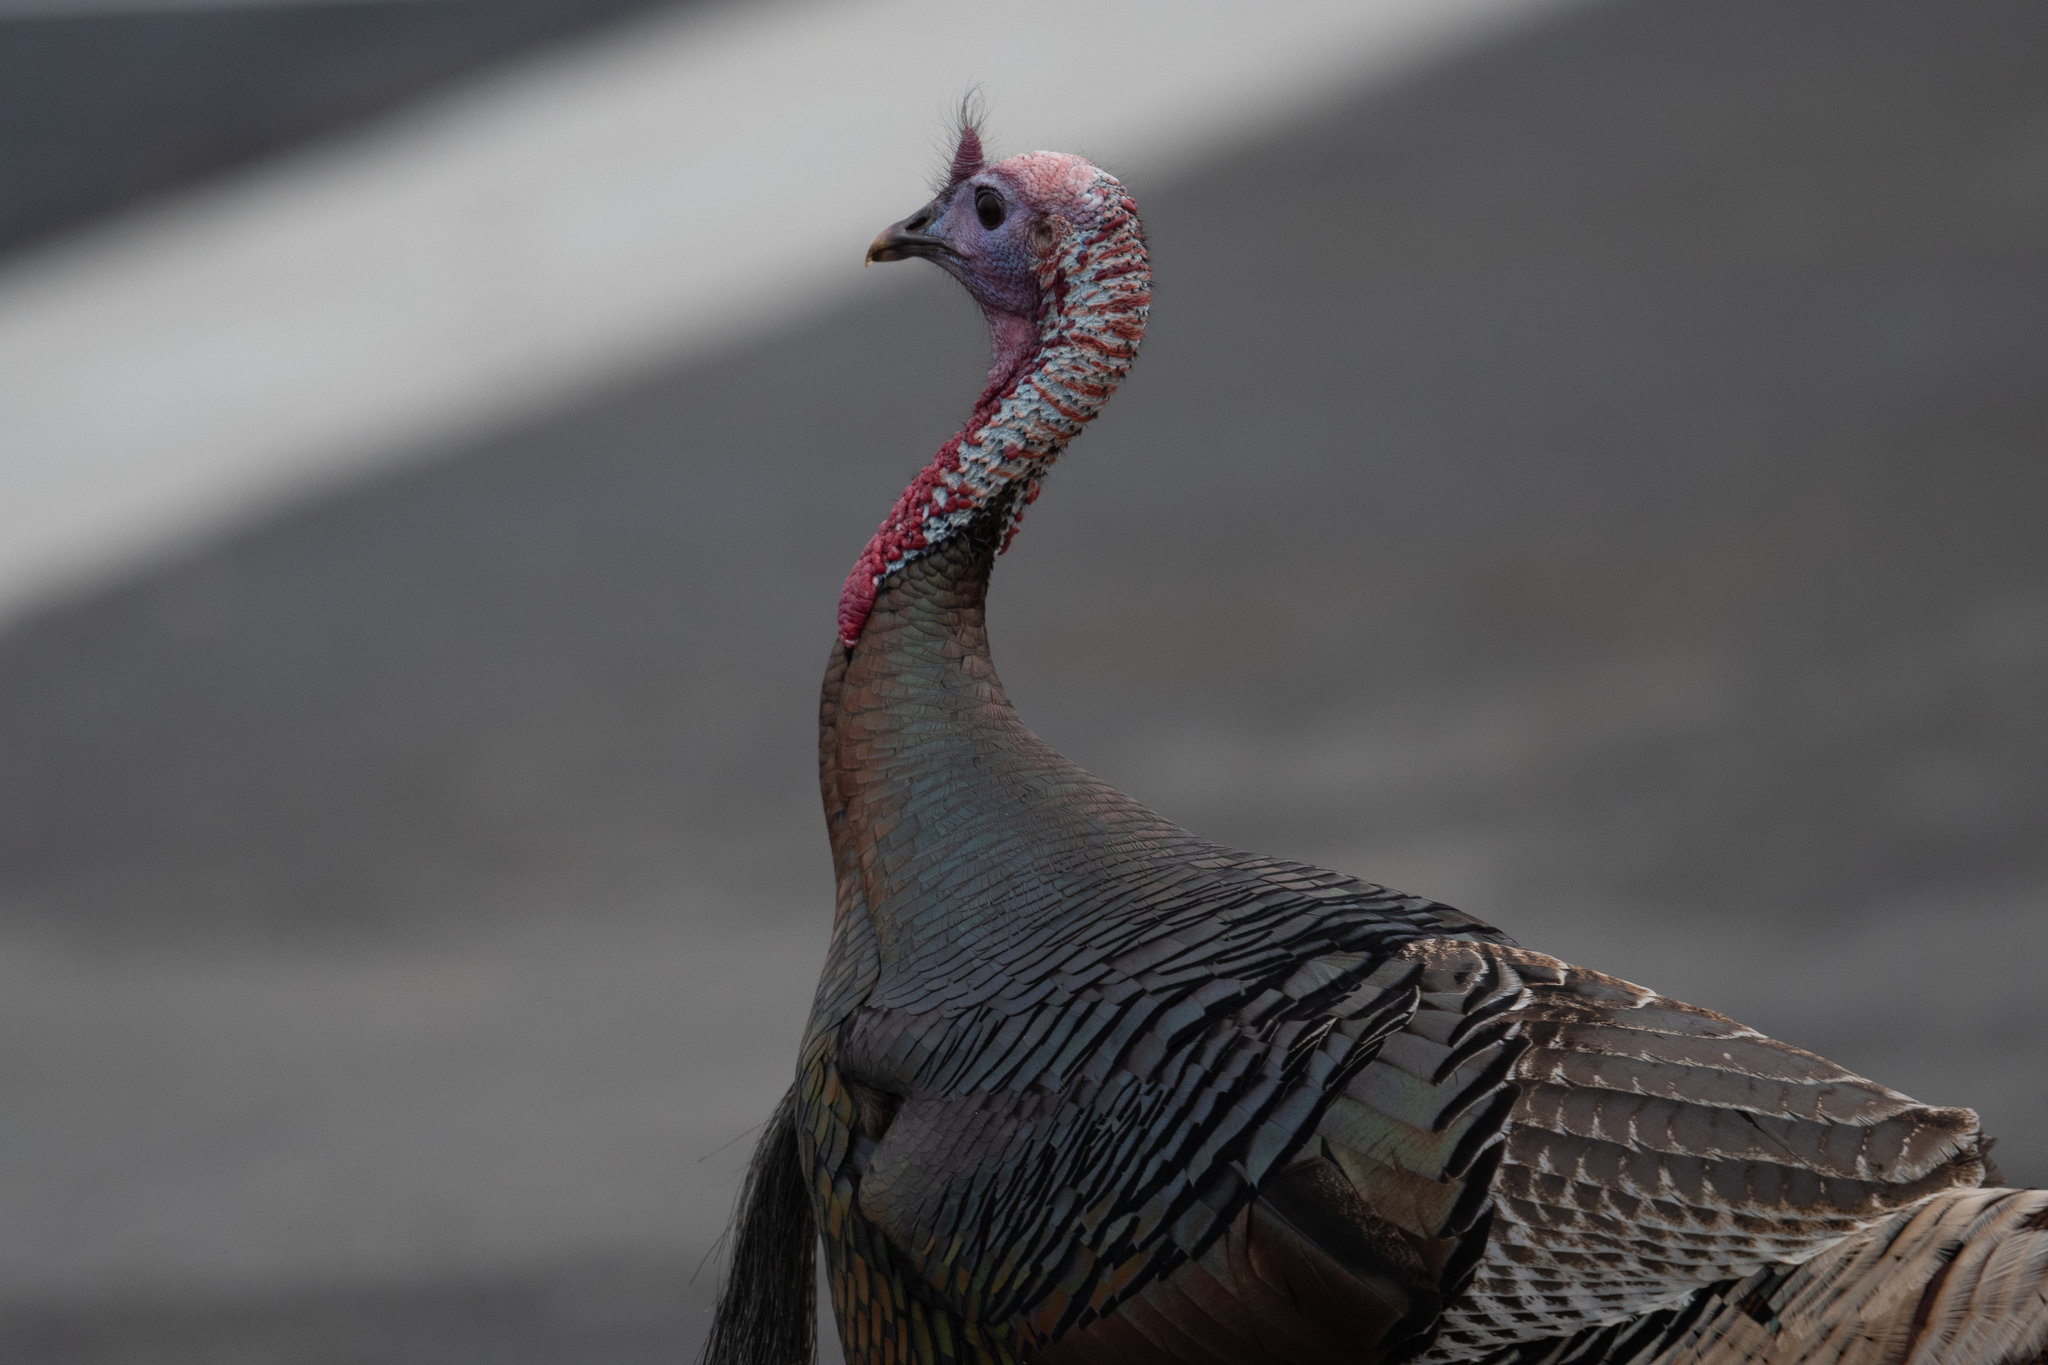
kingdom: Animalia
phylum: Chordata
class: Aves
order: Galliformes
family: Phasianidae
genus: Meleagris
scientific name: Meleagris gallopavo
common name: Wild turkey
